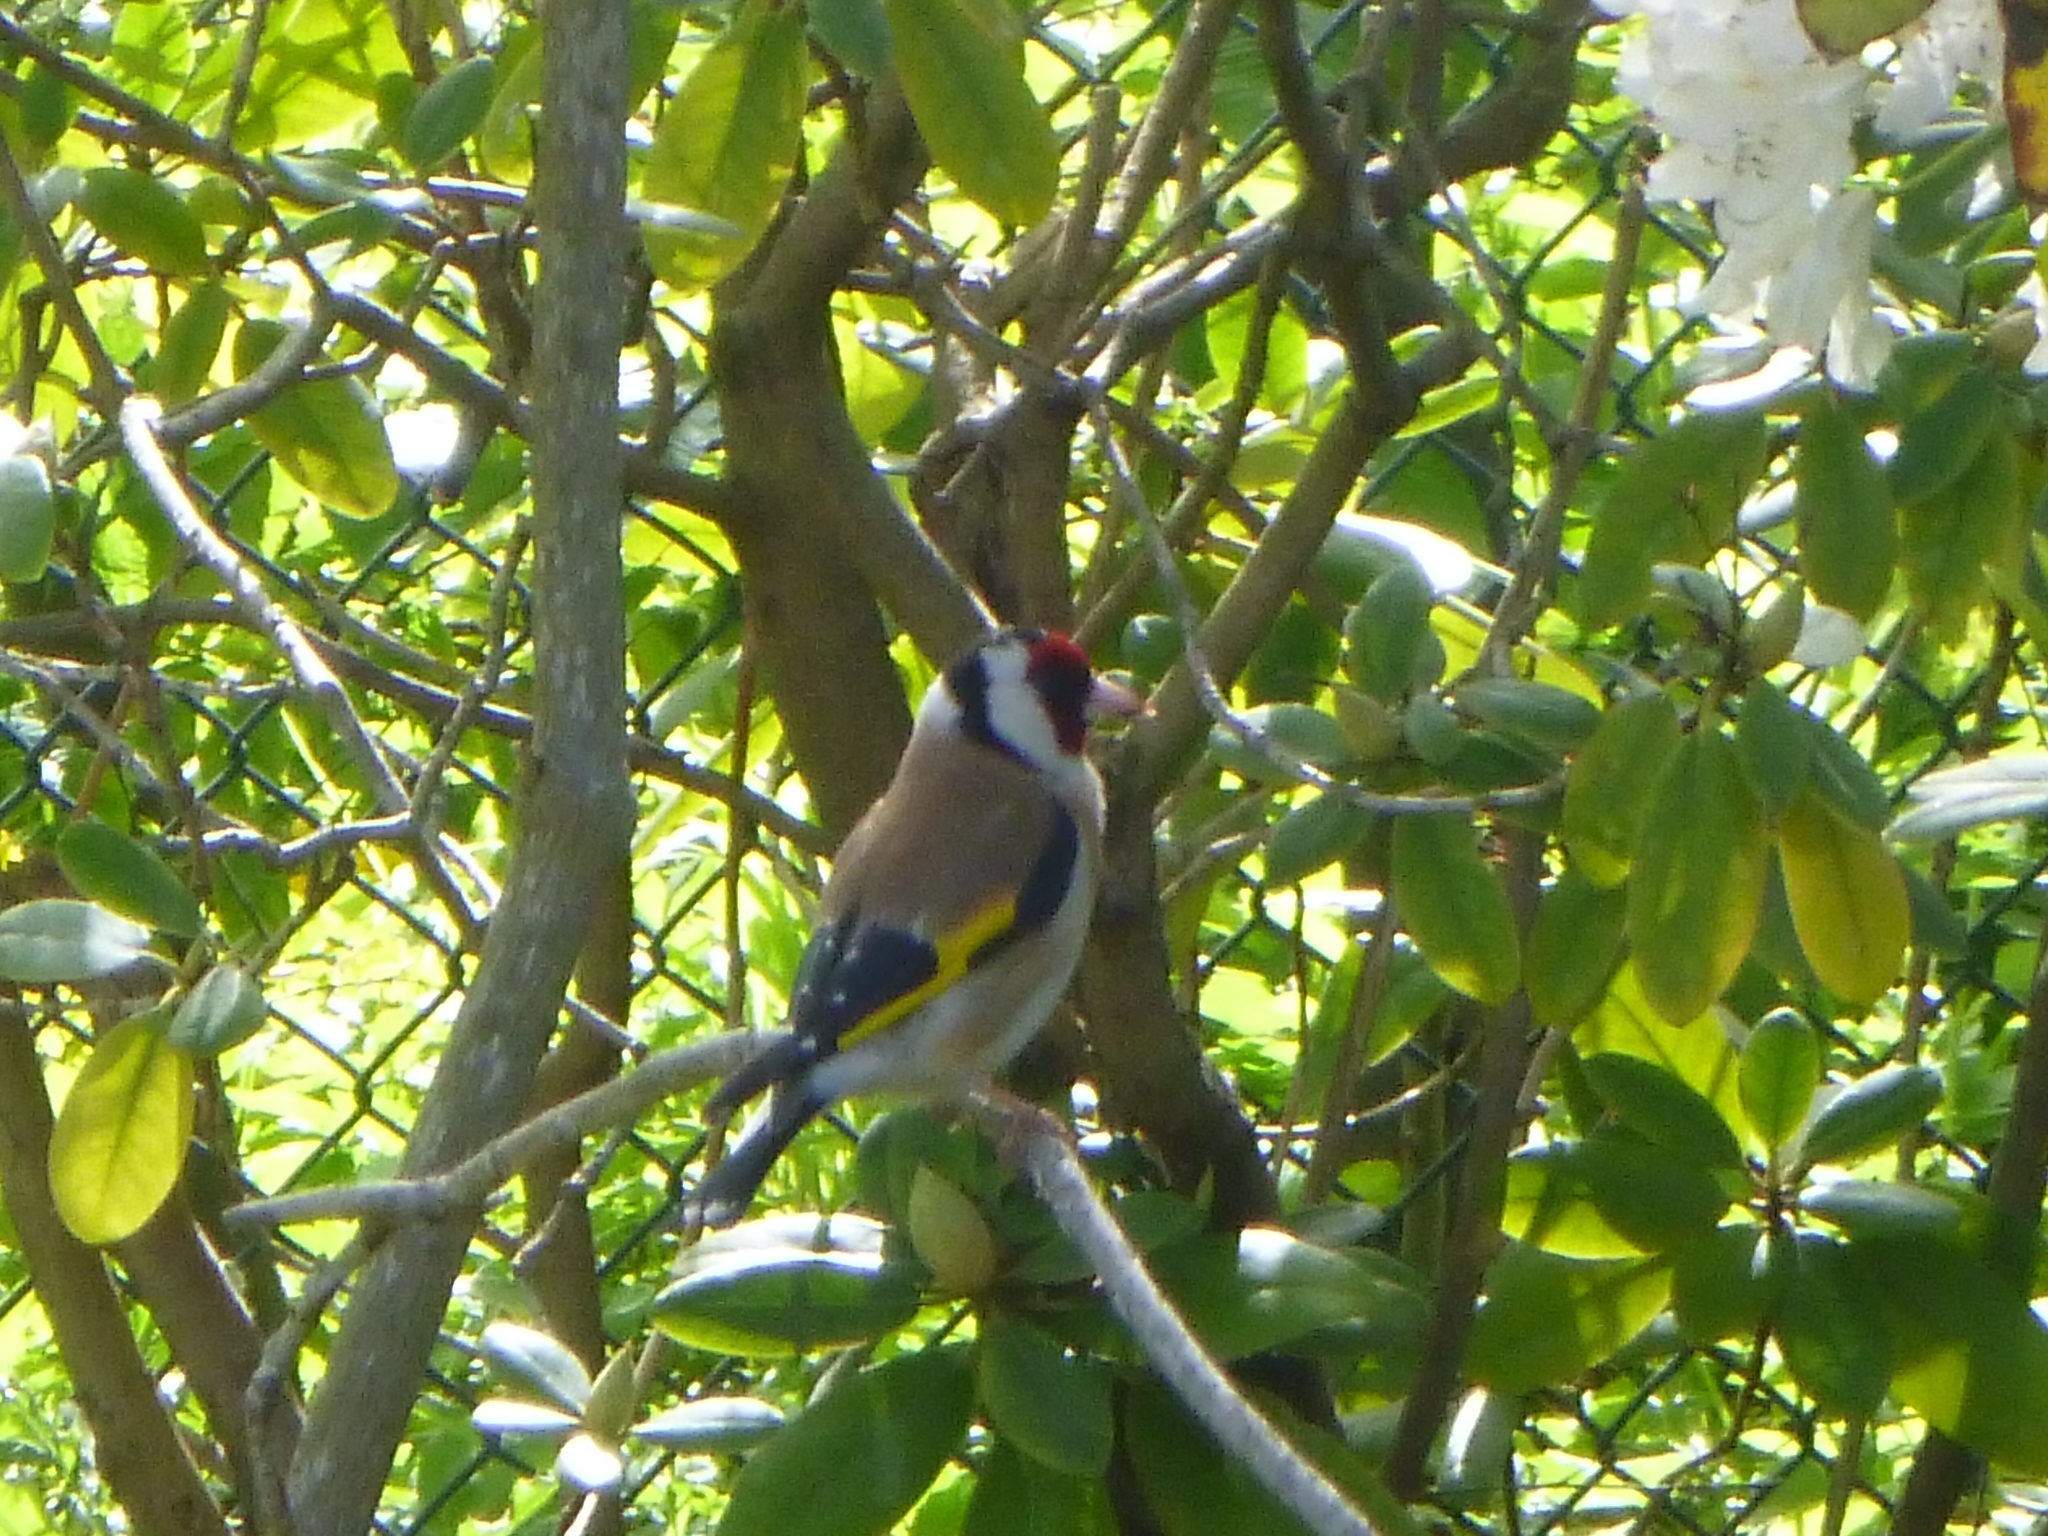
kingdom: Animalia
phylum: Chordata
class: Aves
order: Passeriformes
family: Fringillidae
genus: Carduelis
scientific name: Carduelis carduelis
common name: European goldfinch
